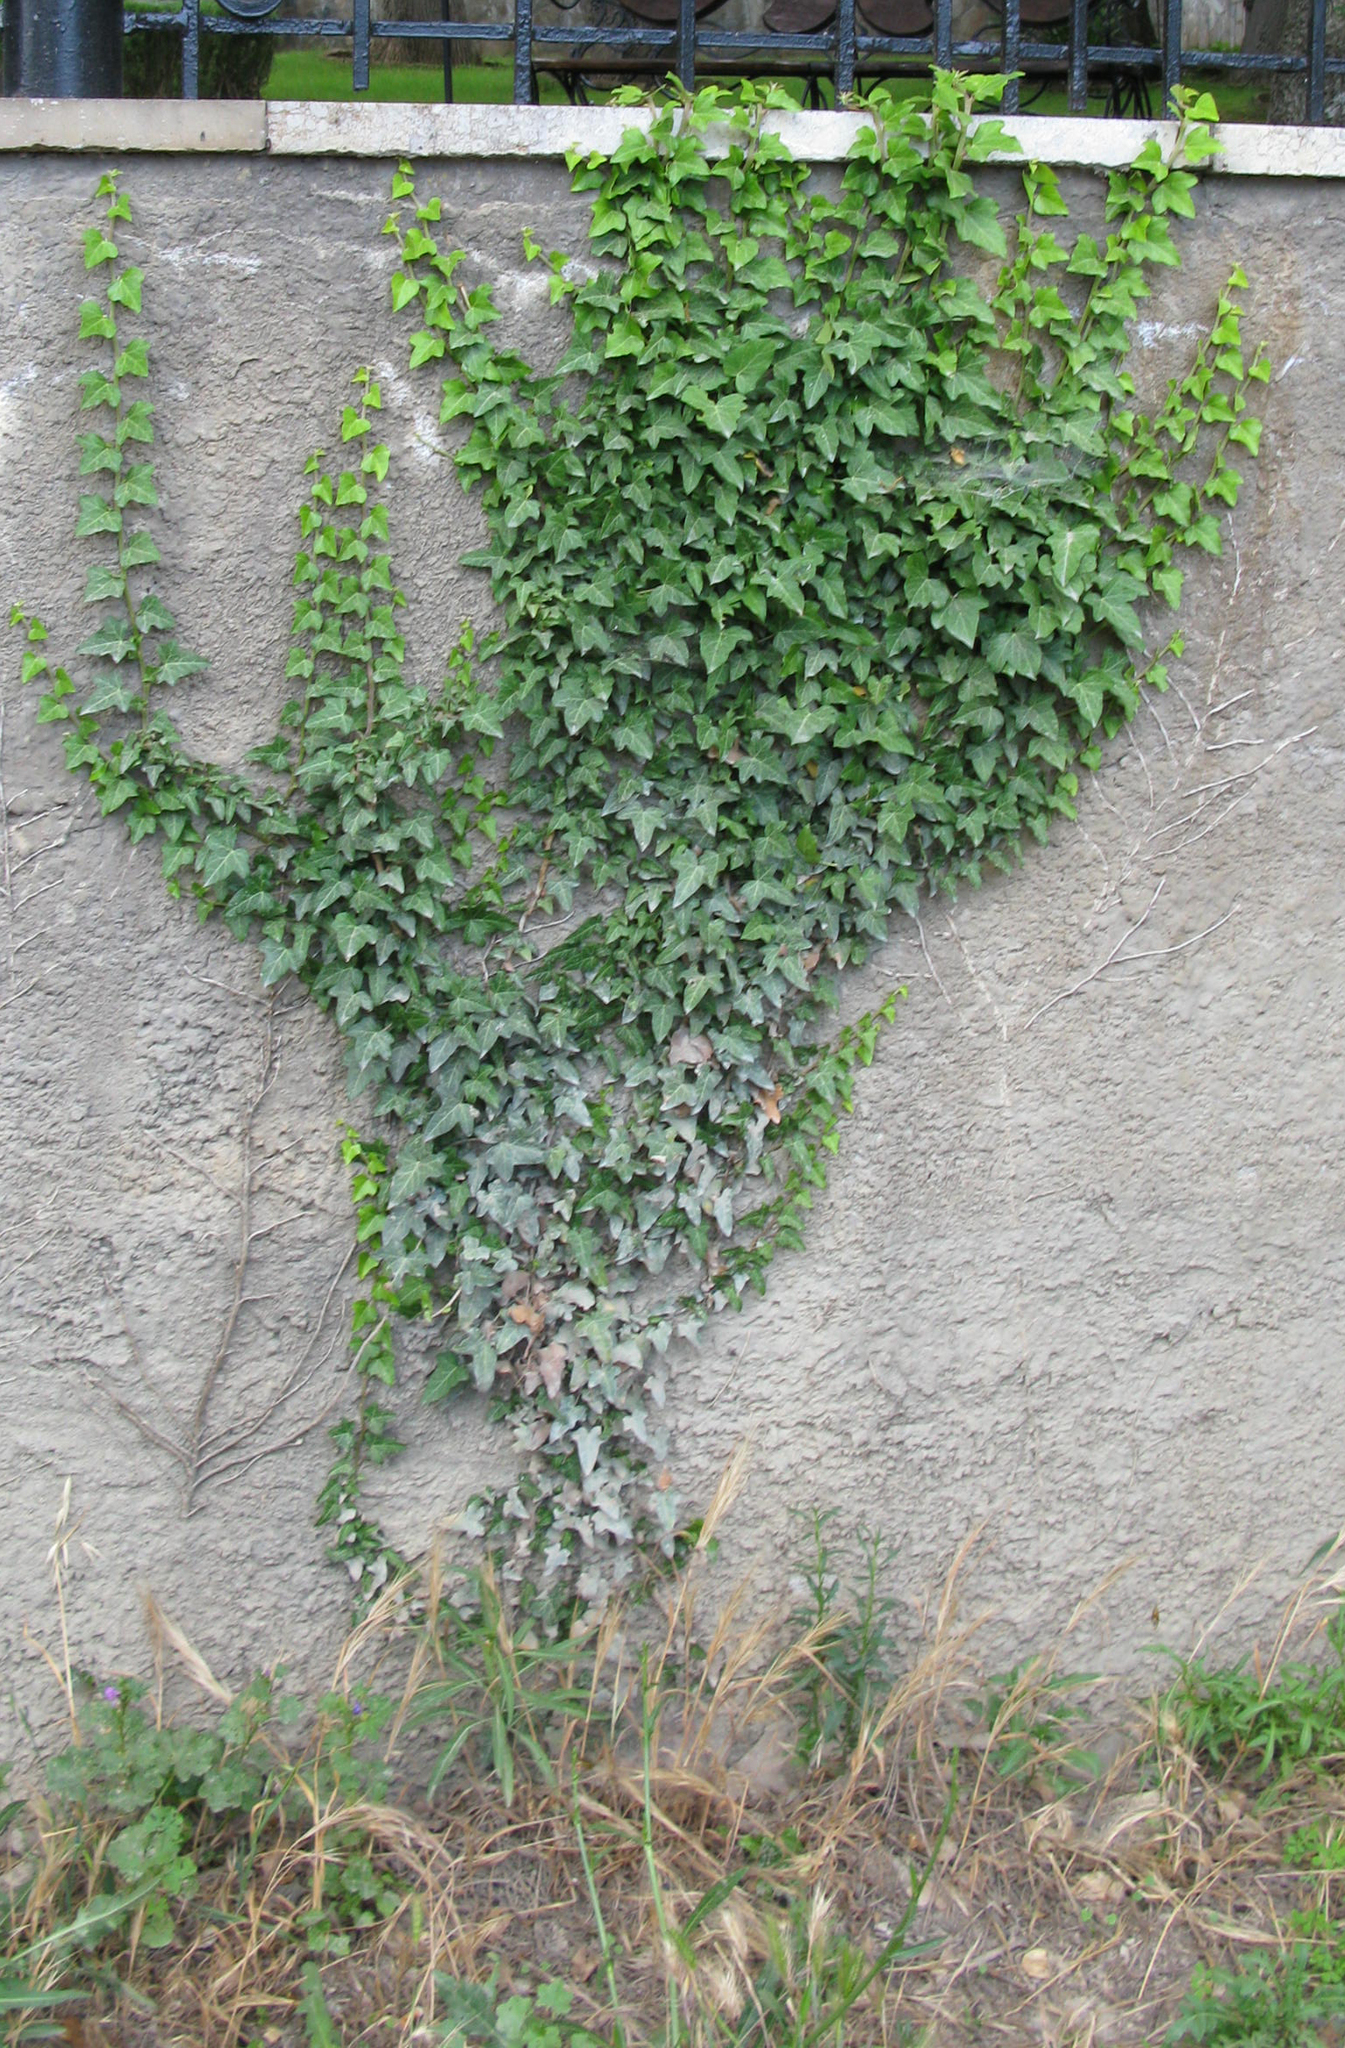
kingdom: Plantae
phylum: Tracheophyta
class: Magnoliopsida
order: Apiales
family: Araliaceae
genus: Hedera
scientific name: Hedera helix
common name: Ivy
